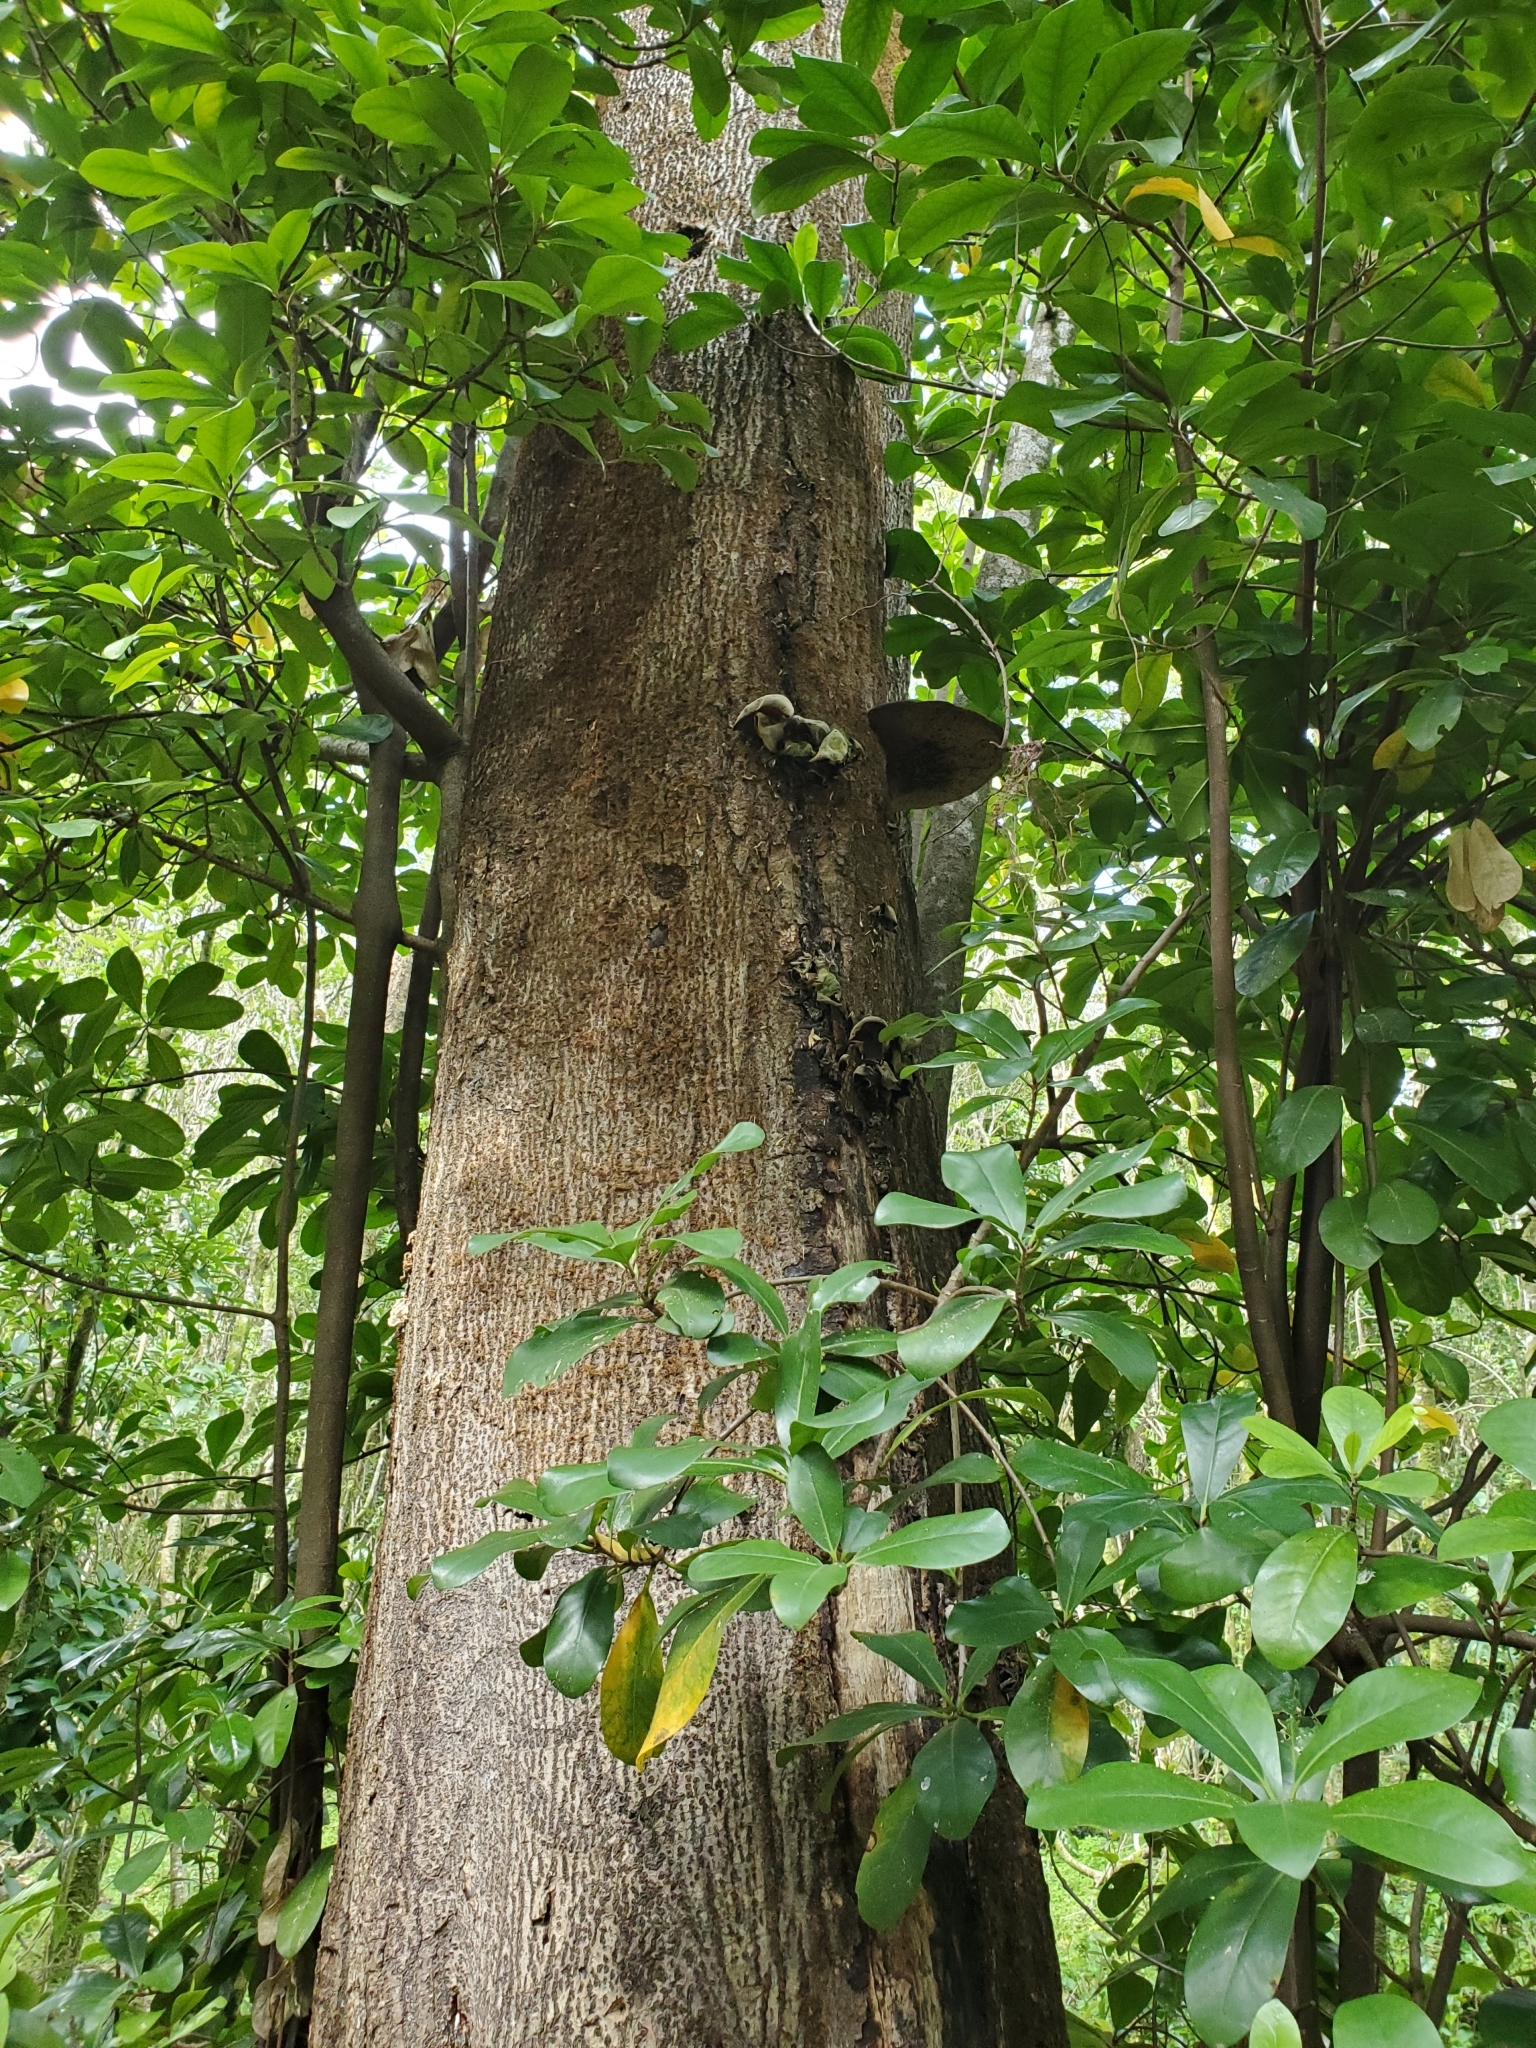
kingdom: Plantae
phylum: Tracheophyta
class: Magnoliopsida
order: Cucurbitales
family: Corynocarpaceae
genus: Corynocarpus
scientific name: Corynocarpus laevigatus
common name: New zealand laurel
